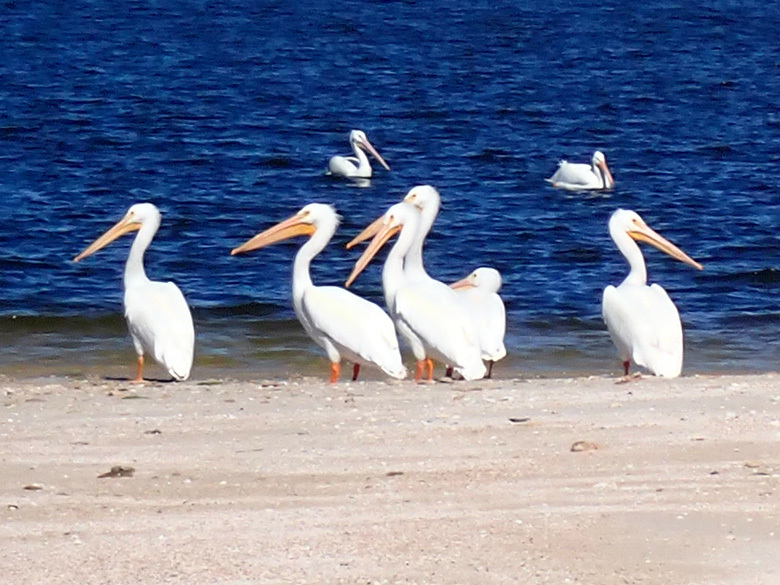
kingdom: Animalia
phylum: Chordata
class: Aves
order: Pelecaniformes
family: Pelecanidae
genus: Pelecanus
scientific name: Pelecanus erythrorhynchos
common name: American white pelican
